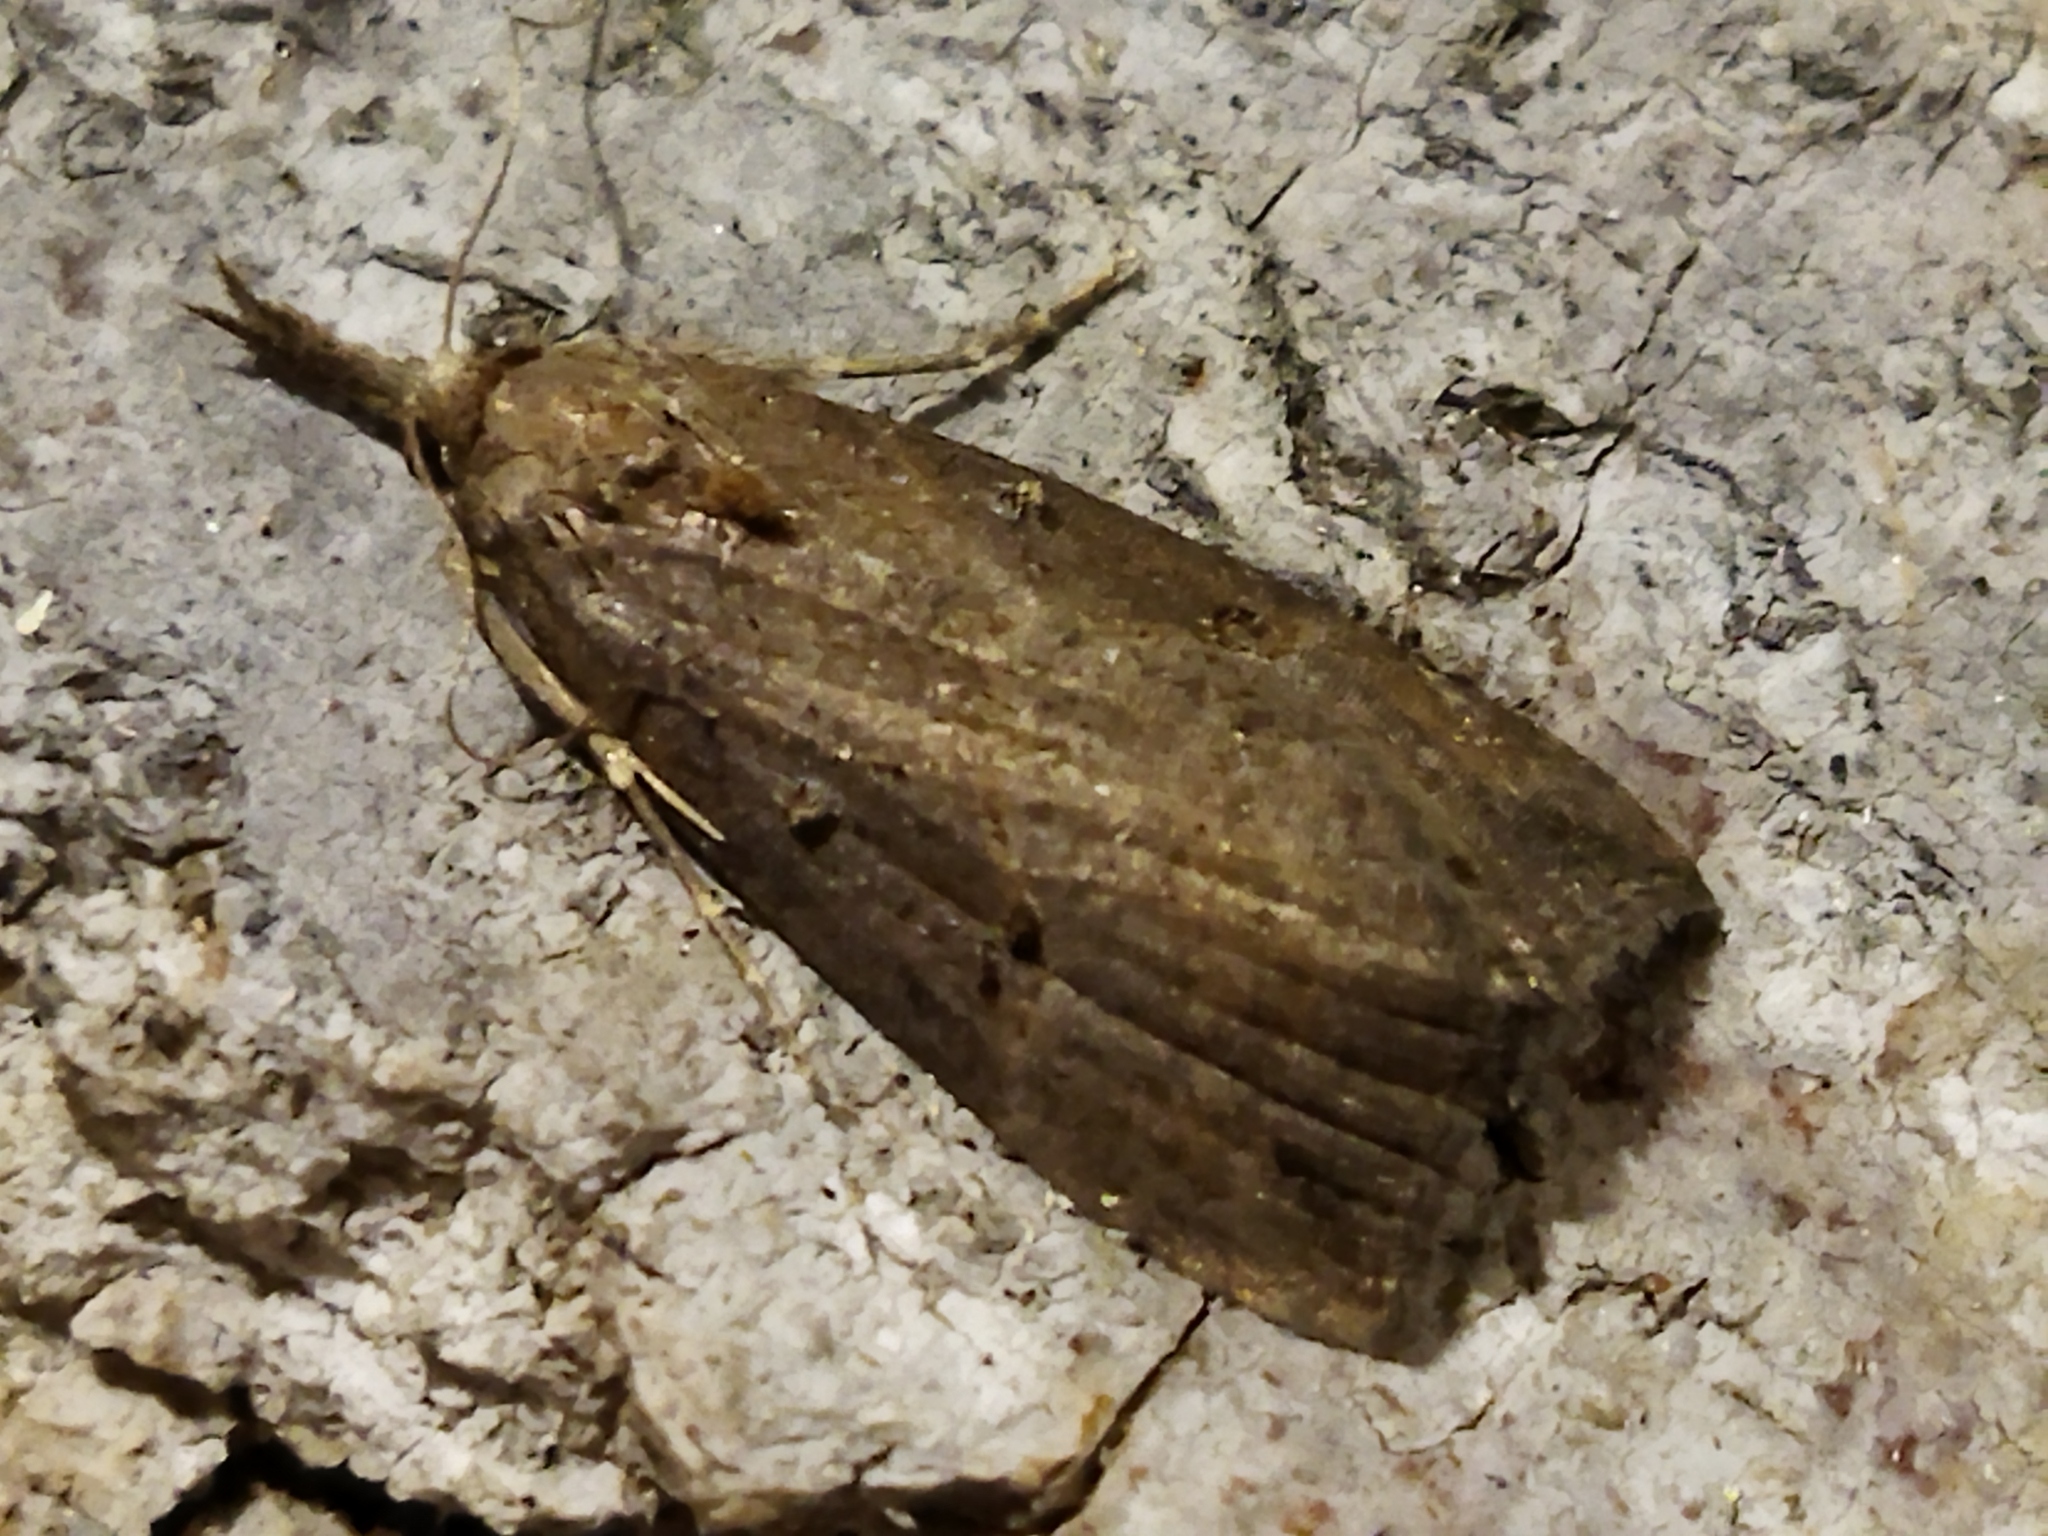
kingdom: Animalia
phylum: Arthropoda
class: Insecta
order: Lepidoptera
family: Erebidae
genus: Hypena
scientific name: Hypena rostralis
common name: Buttoned snout
